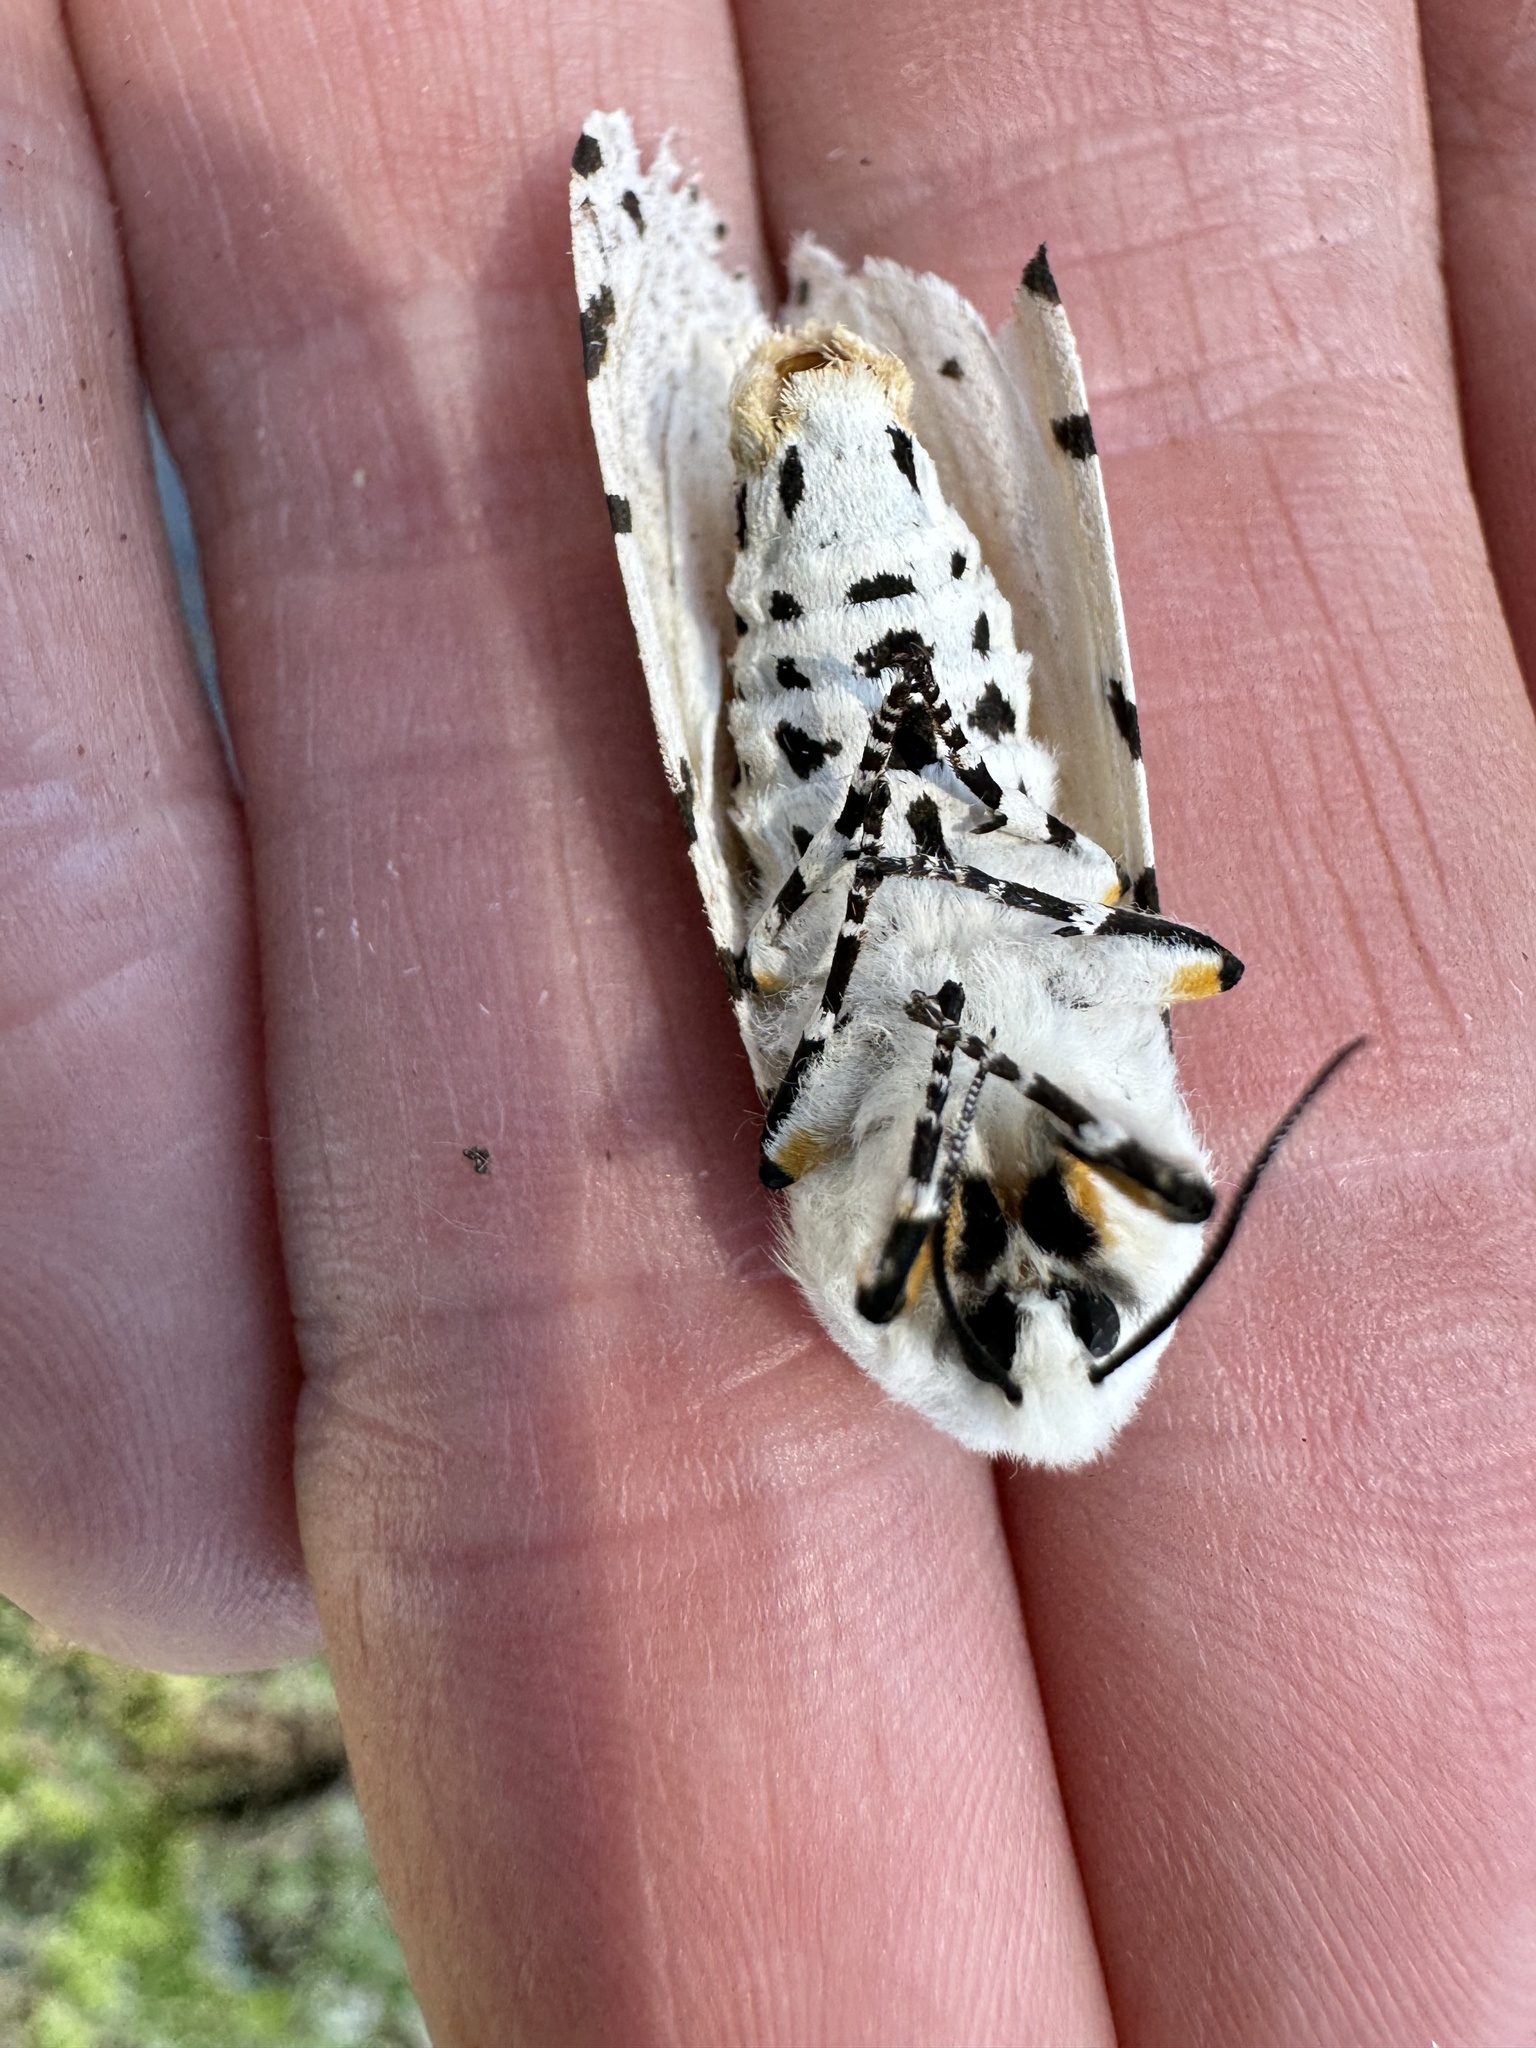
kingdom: Animalia
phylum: Arthropoda
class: Insecta
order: Lepidoptera
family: Erebidae
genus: Estigmene
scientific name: Estigmene acrea
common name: Salt marsh moth
